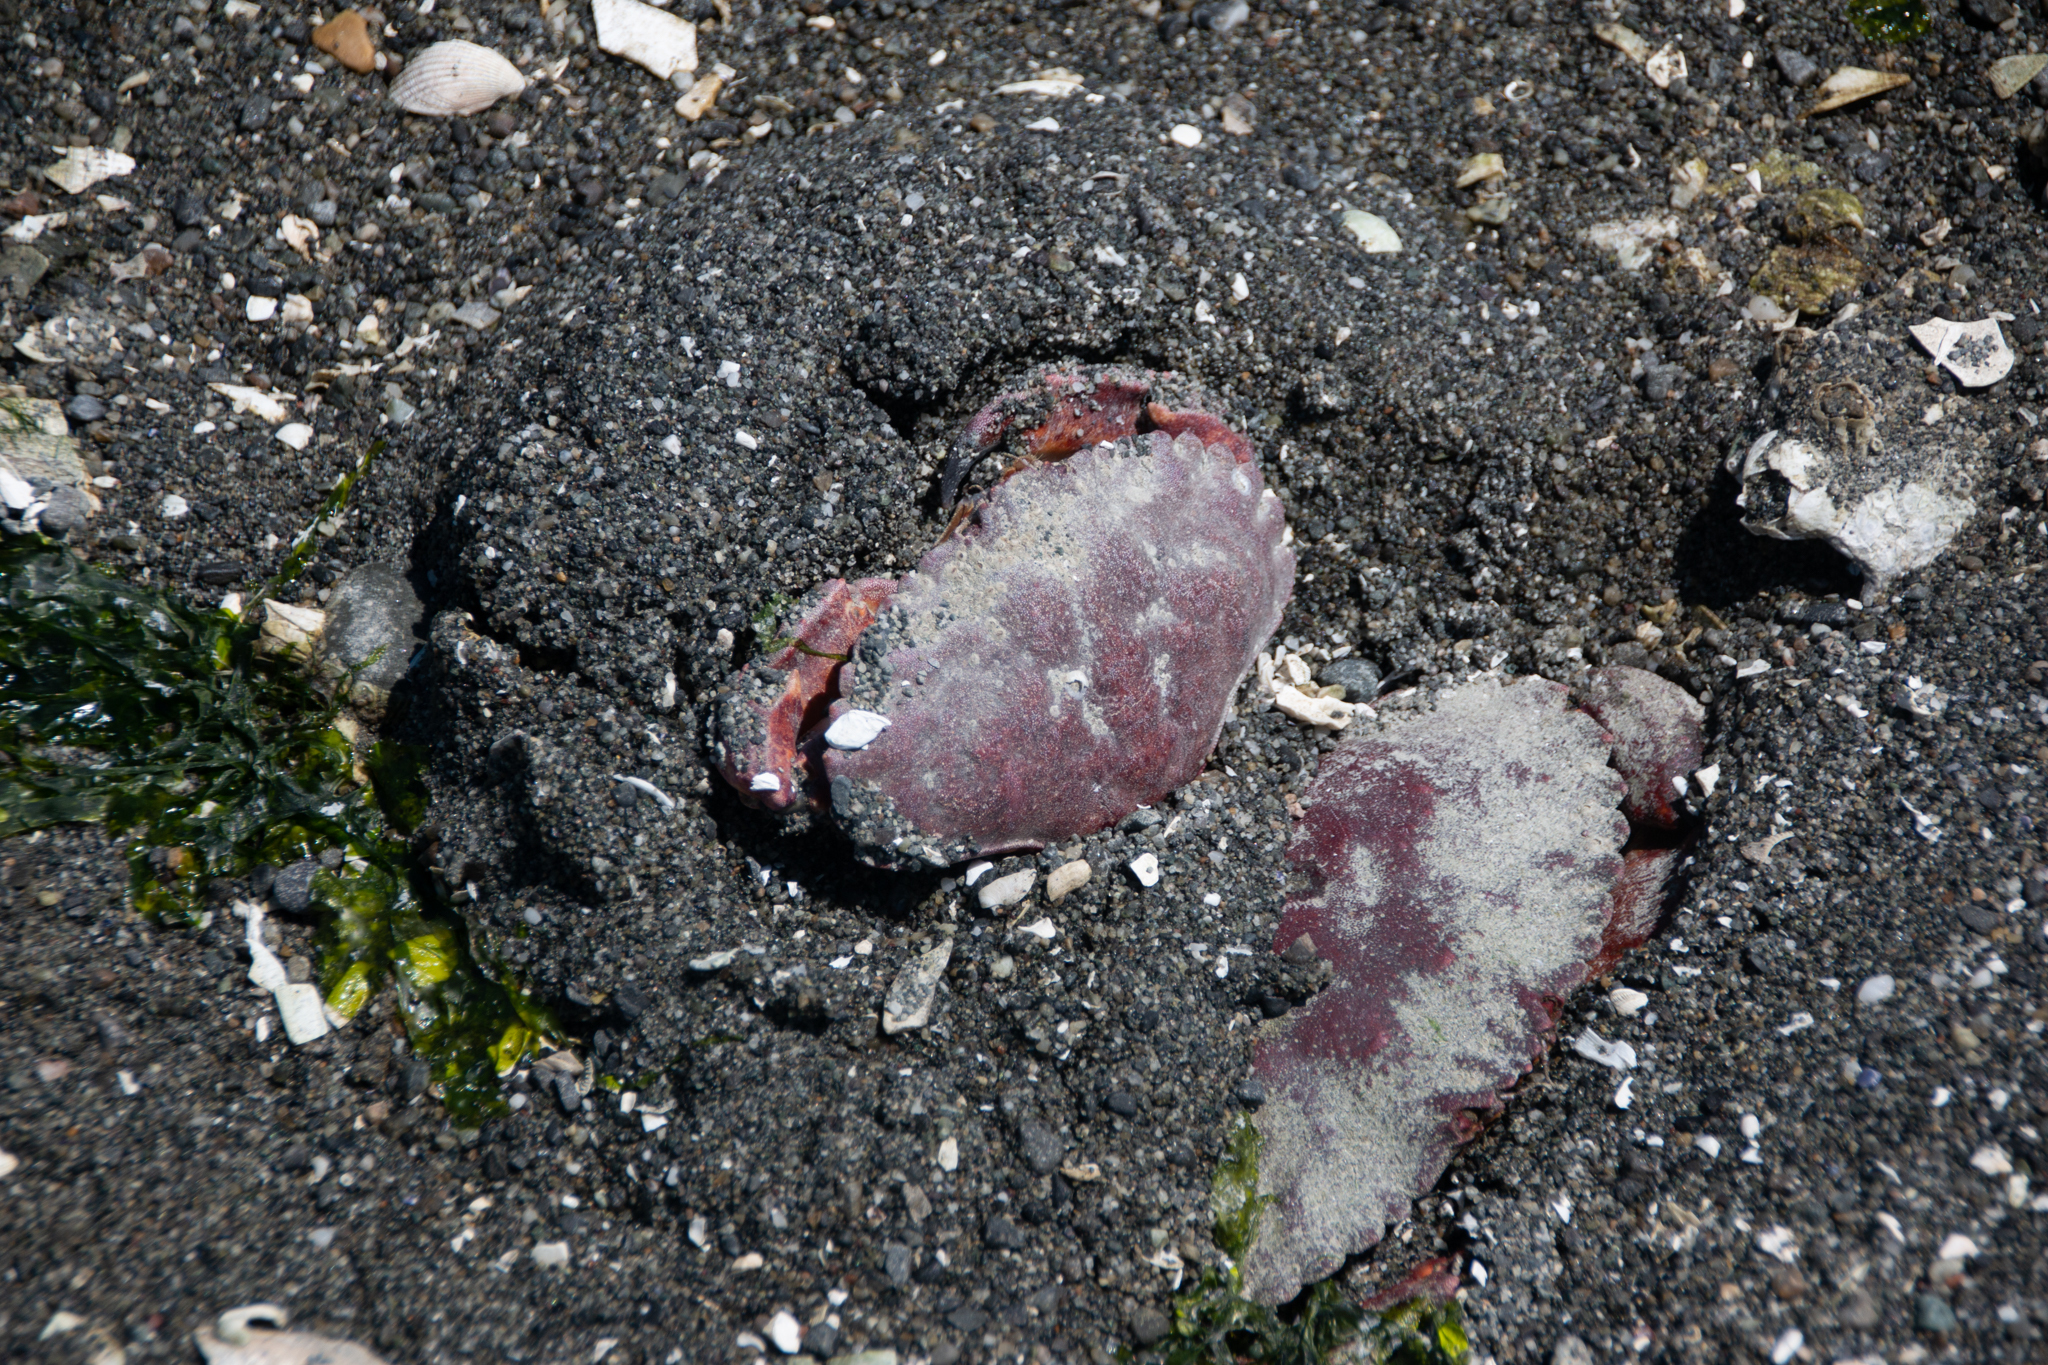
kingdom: Animalia
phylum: Arthropoda
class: Malacostraca
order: Decapoda
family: Cancridae
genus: Cancer
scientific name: Cancer productus
